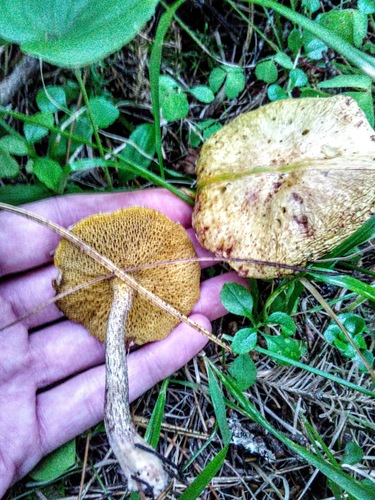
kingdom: Fungi
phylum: Basidiomycota
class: Agaricomycetes
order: Boletales
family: Suillaceae
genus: Suillus
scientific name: Suillus americanus
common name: Chicken fat mushroom
